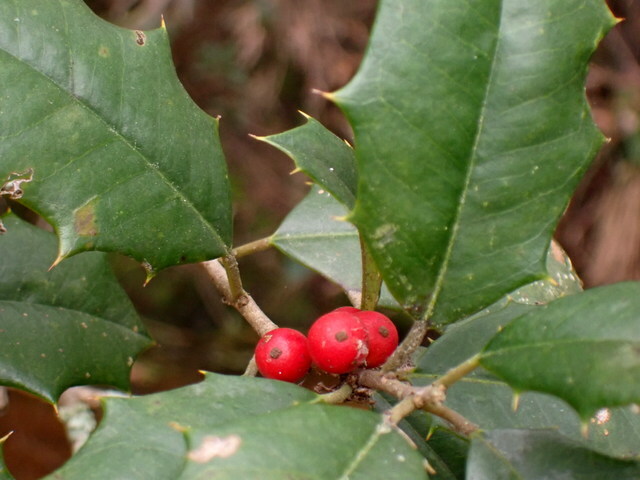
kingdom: Plantae
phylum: Tracheophyta
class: Magnoliopsida
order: Aquifoliales
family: Aquifoliaceae
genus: Ilex
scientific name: Ilex opaca
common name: American holly
